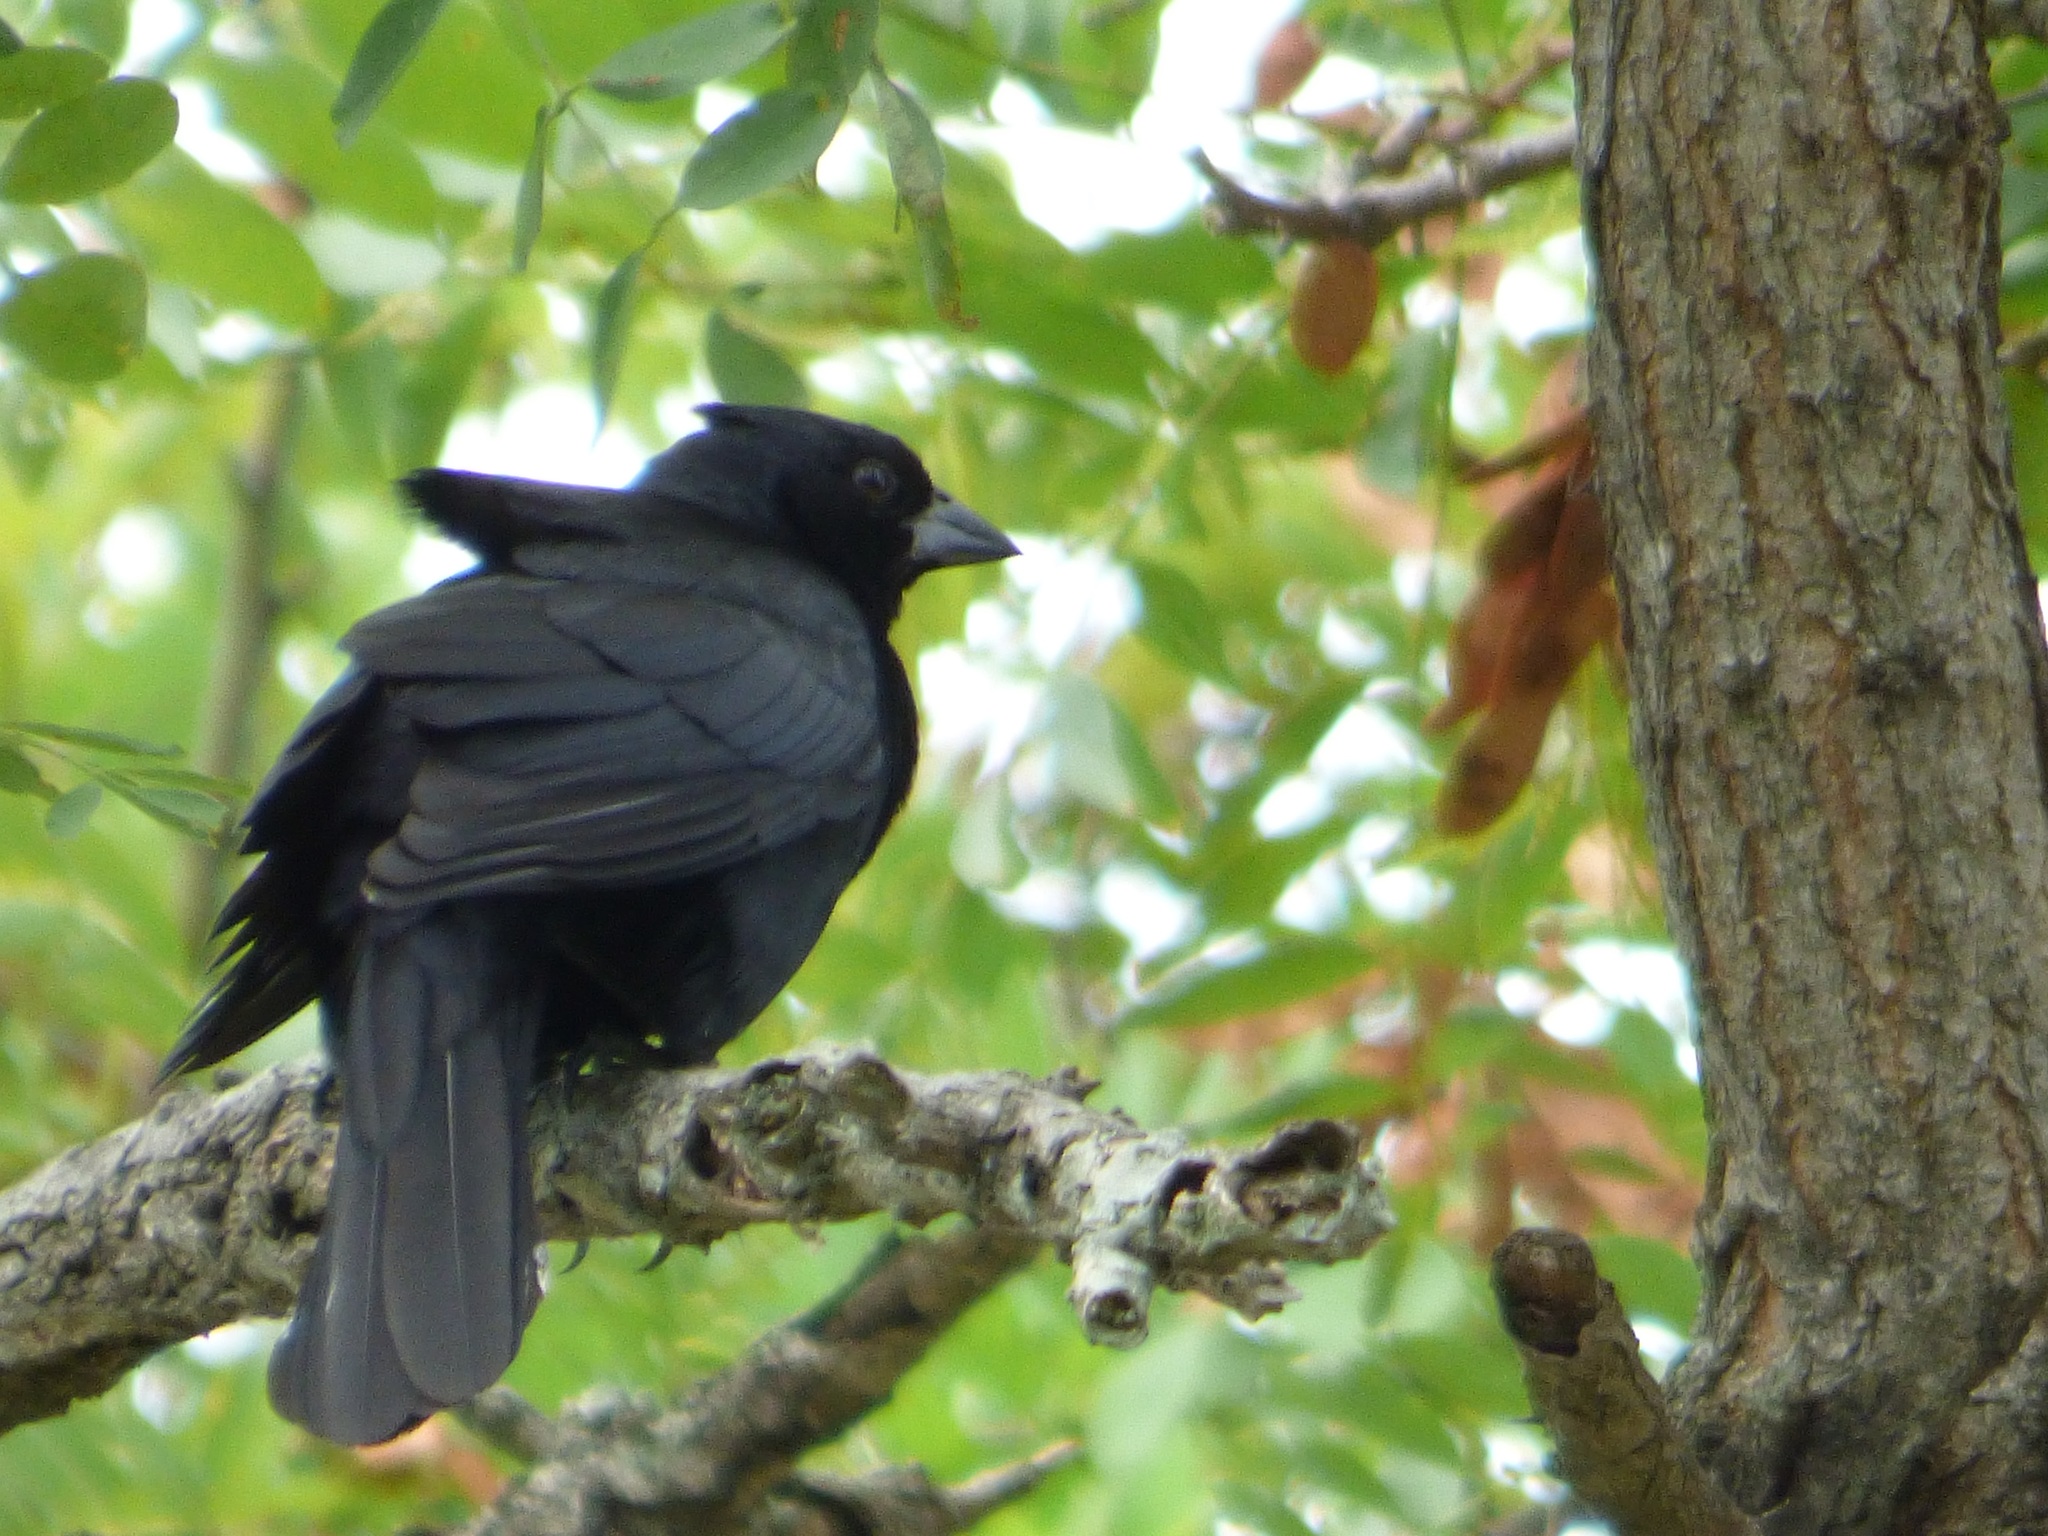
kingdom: Animalia
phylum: Chordata
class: Aves
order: Passeriformes
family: Icteridae
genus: Molothrus
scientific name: Molothrus rufoaxillaris
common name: Screaming cowbird
